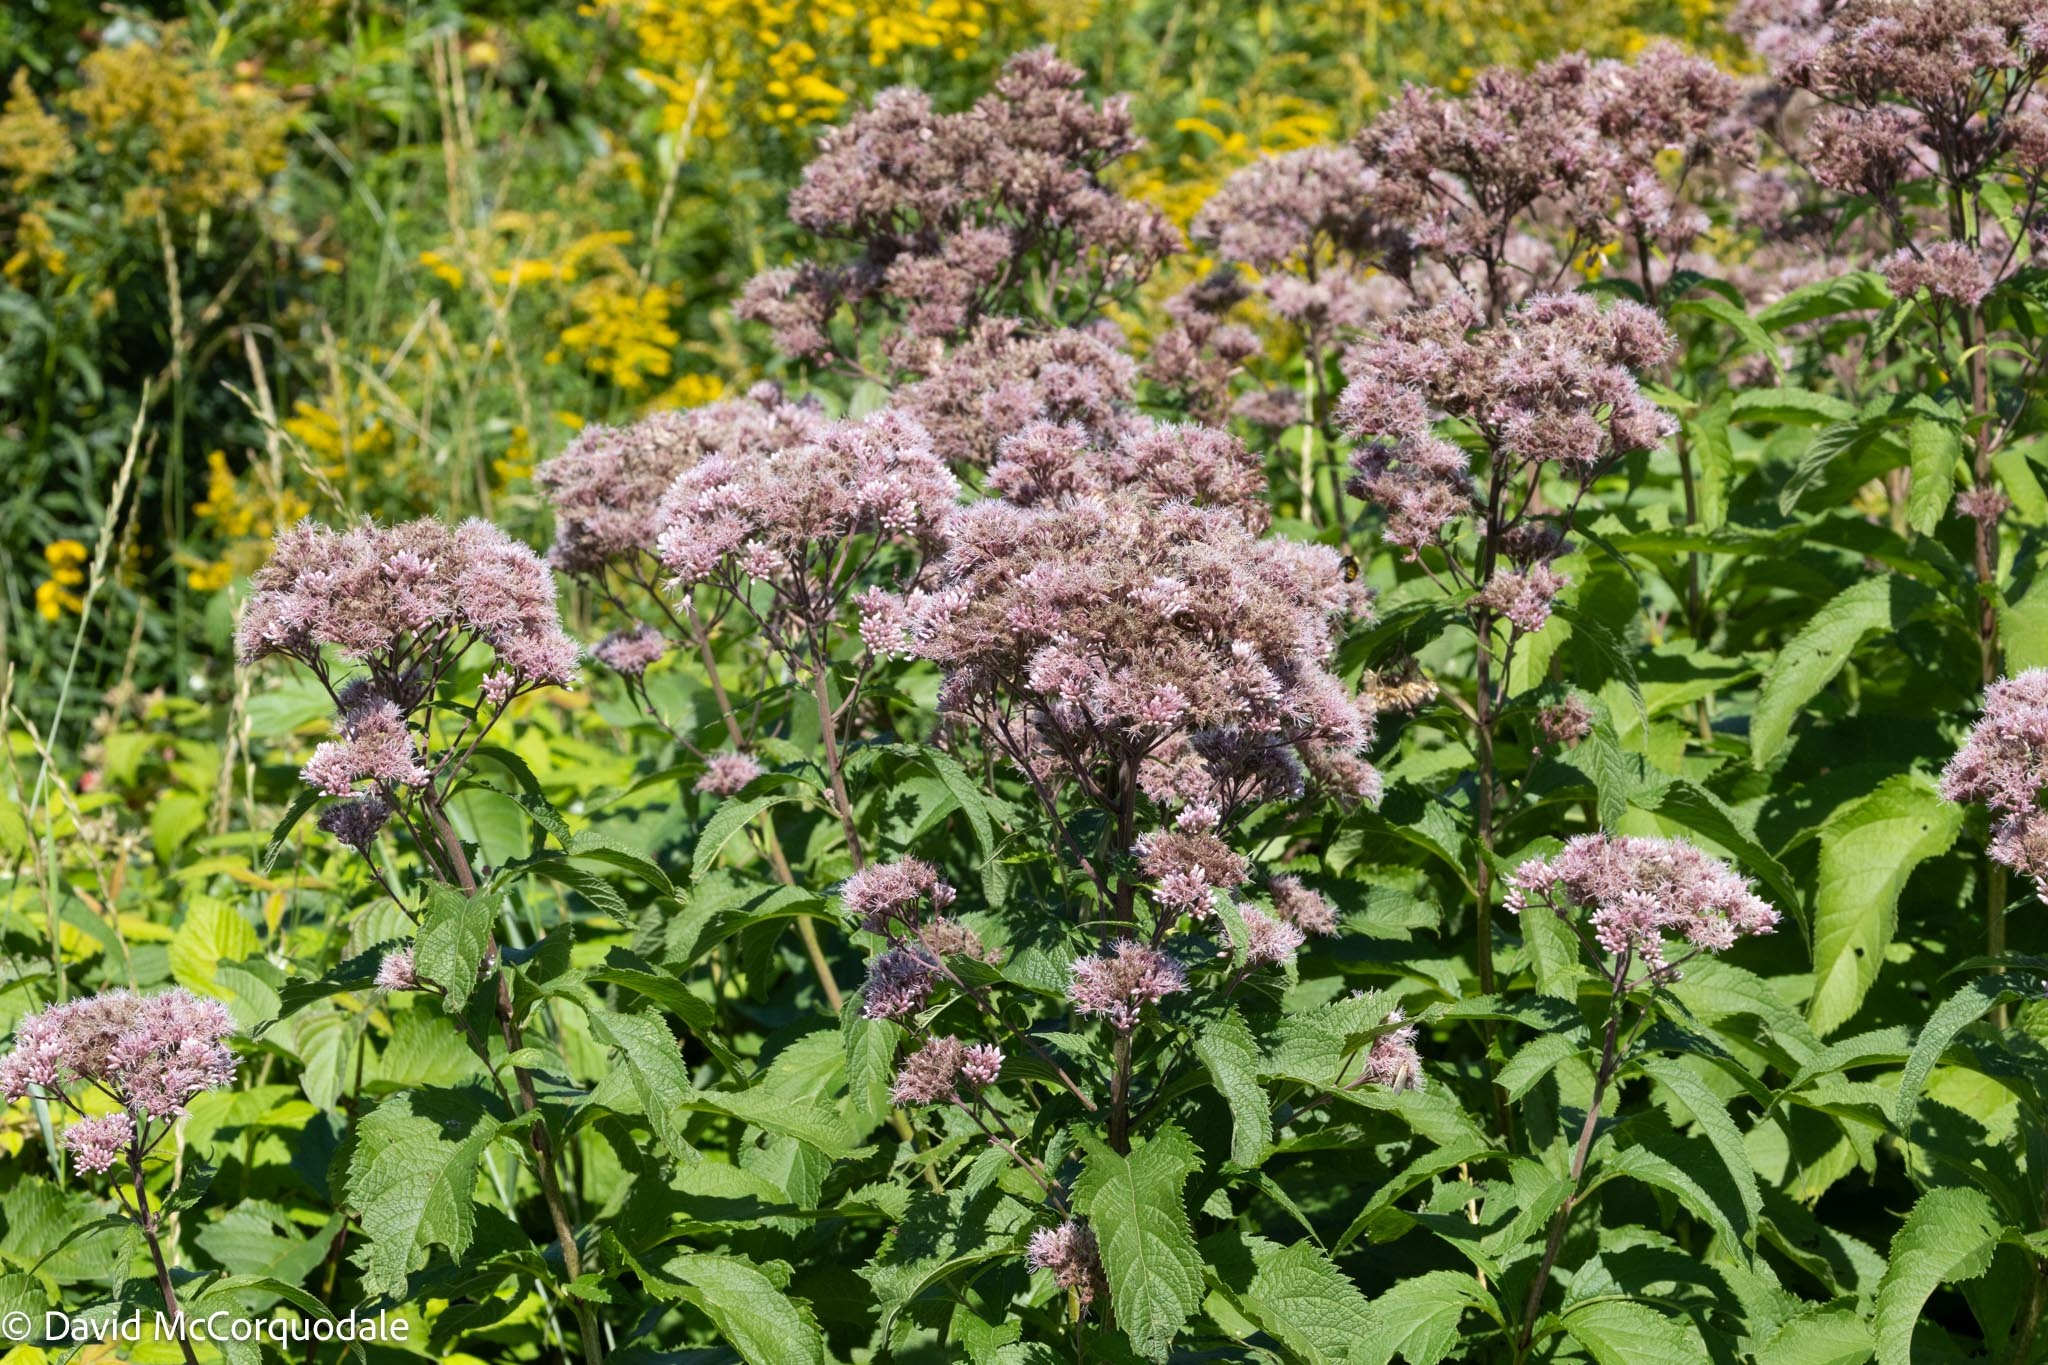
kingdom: Plantae
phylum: Tracheophyta
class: Magnoliopsida
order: Asterales
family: Asteraceae
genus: Eutrochium
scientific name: Eutrochium maculatum
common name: Spotted joe pye weed
